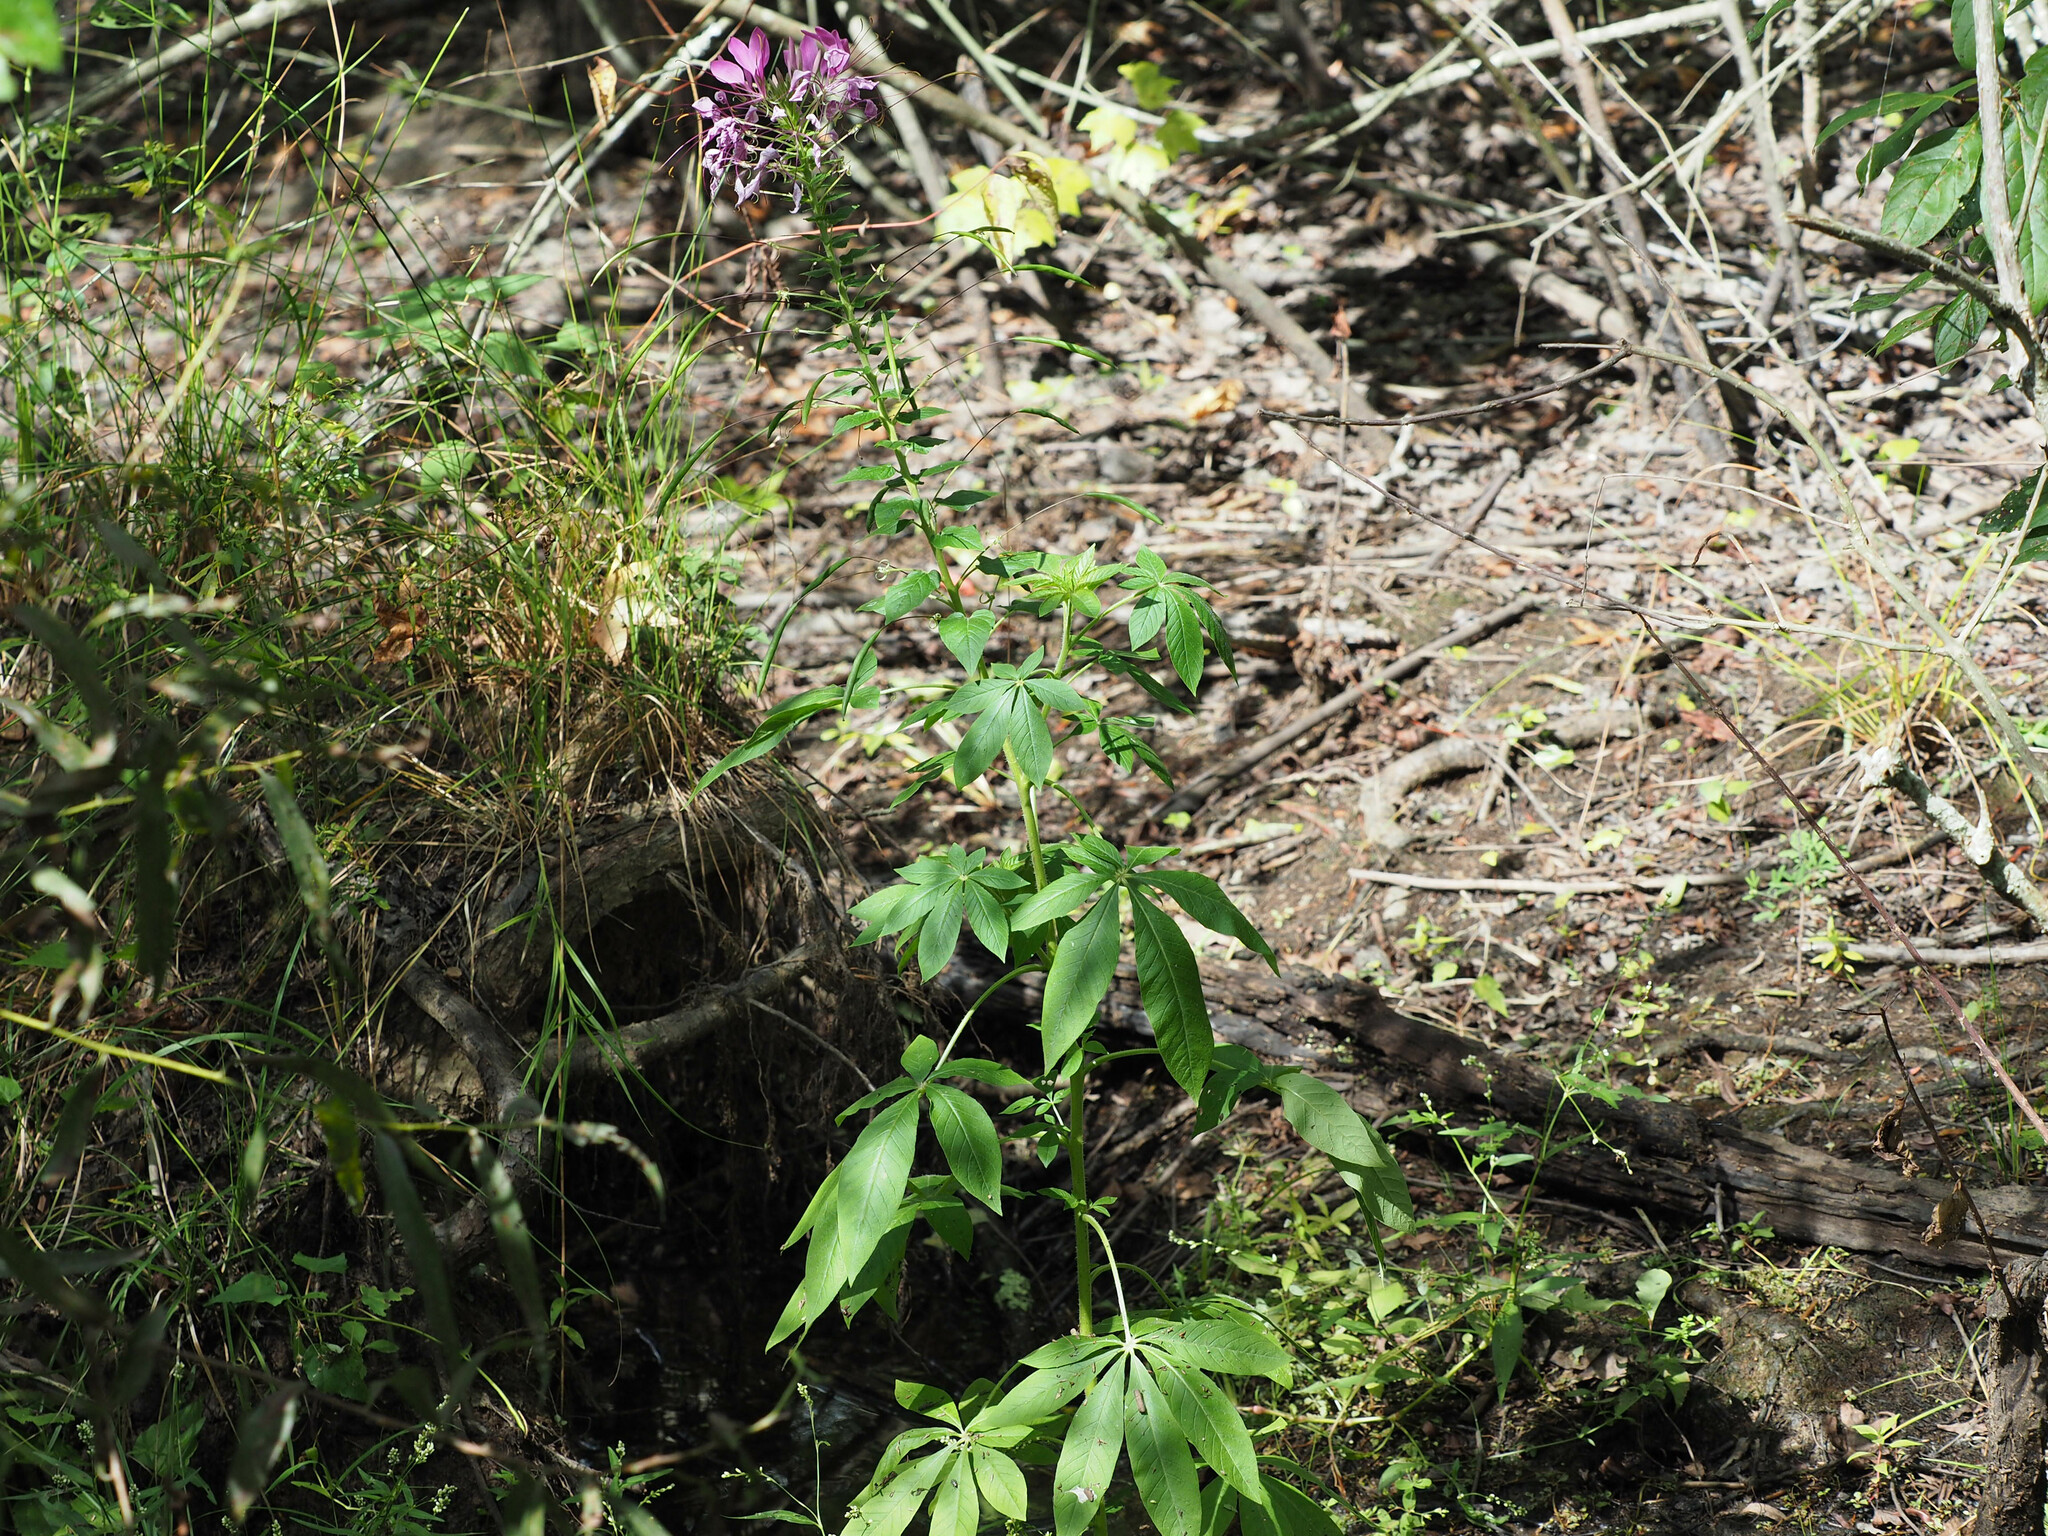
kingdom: Plantae
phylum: Tracheophyta
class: Magnoliopsida
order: Brassicales
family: Cleomaceae
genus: Tarenaya
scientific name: Tarenaya houtteana
